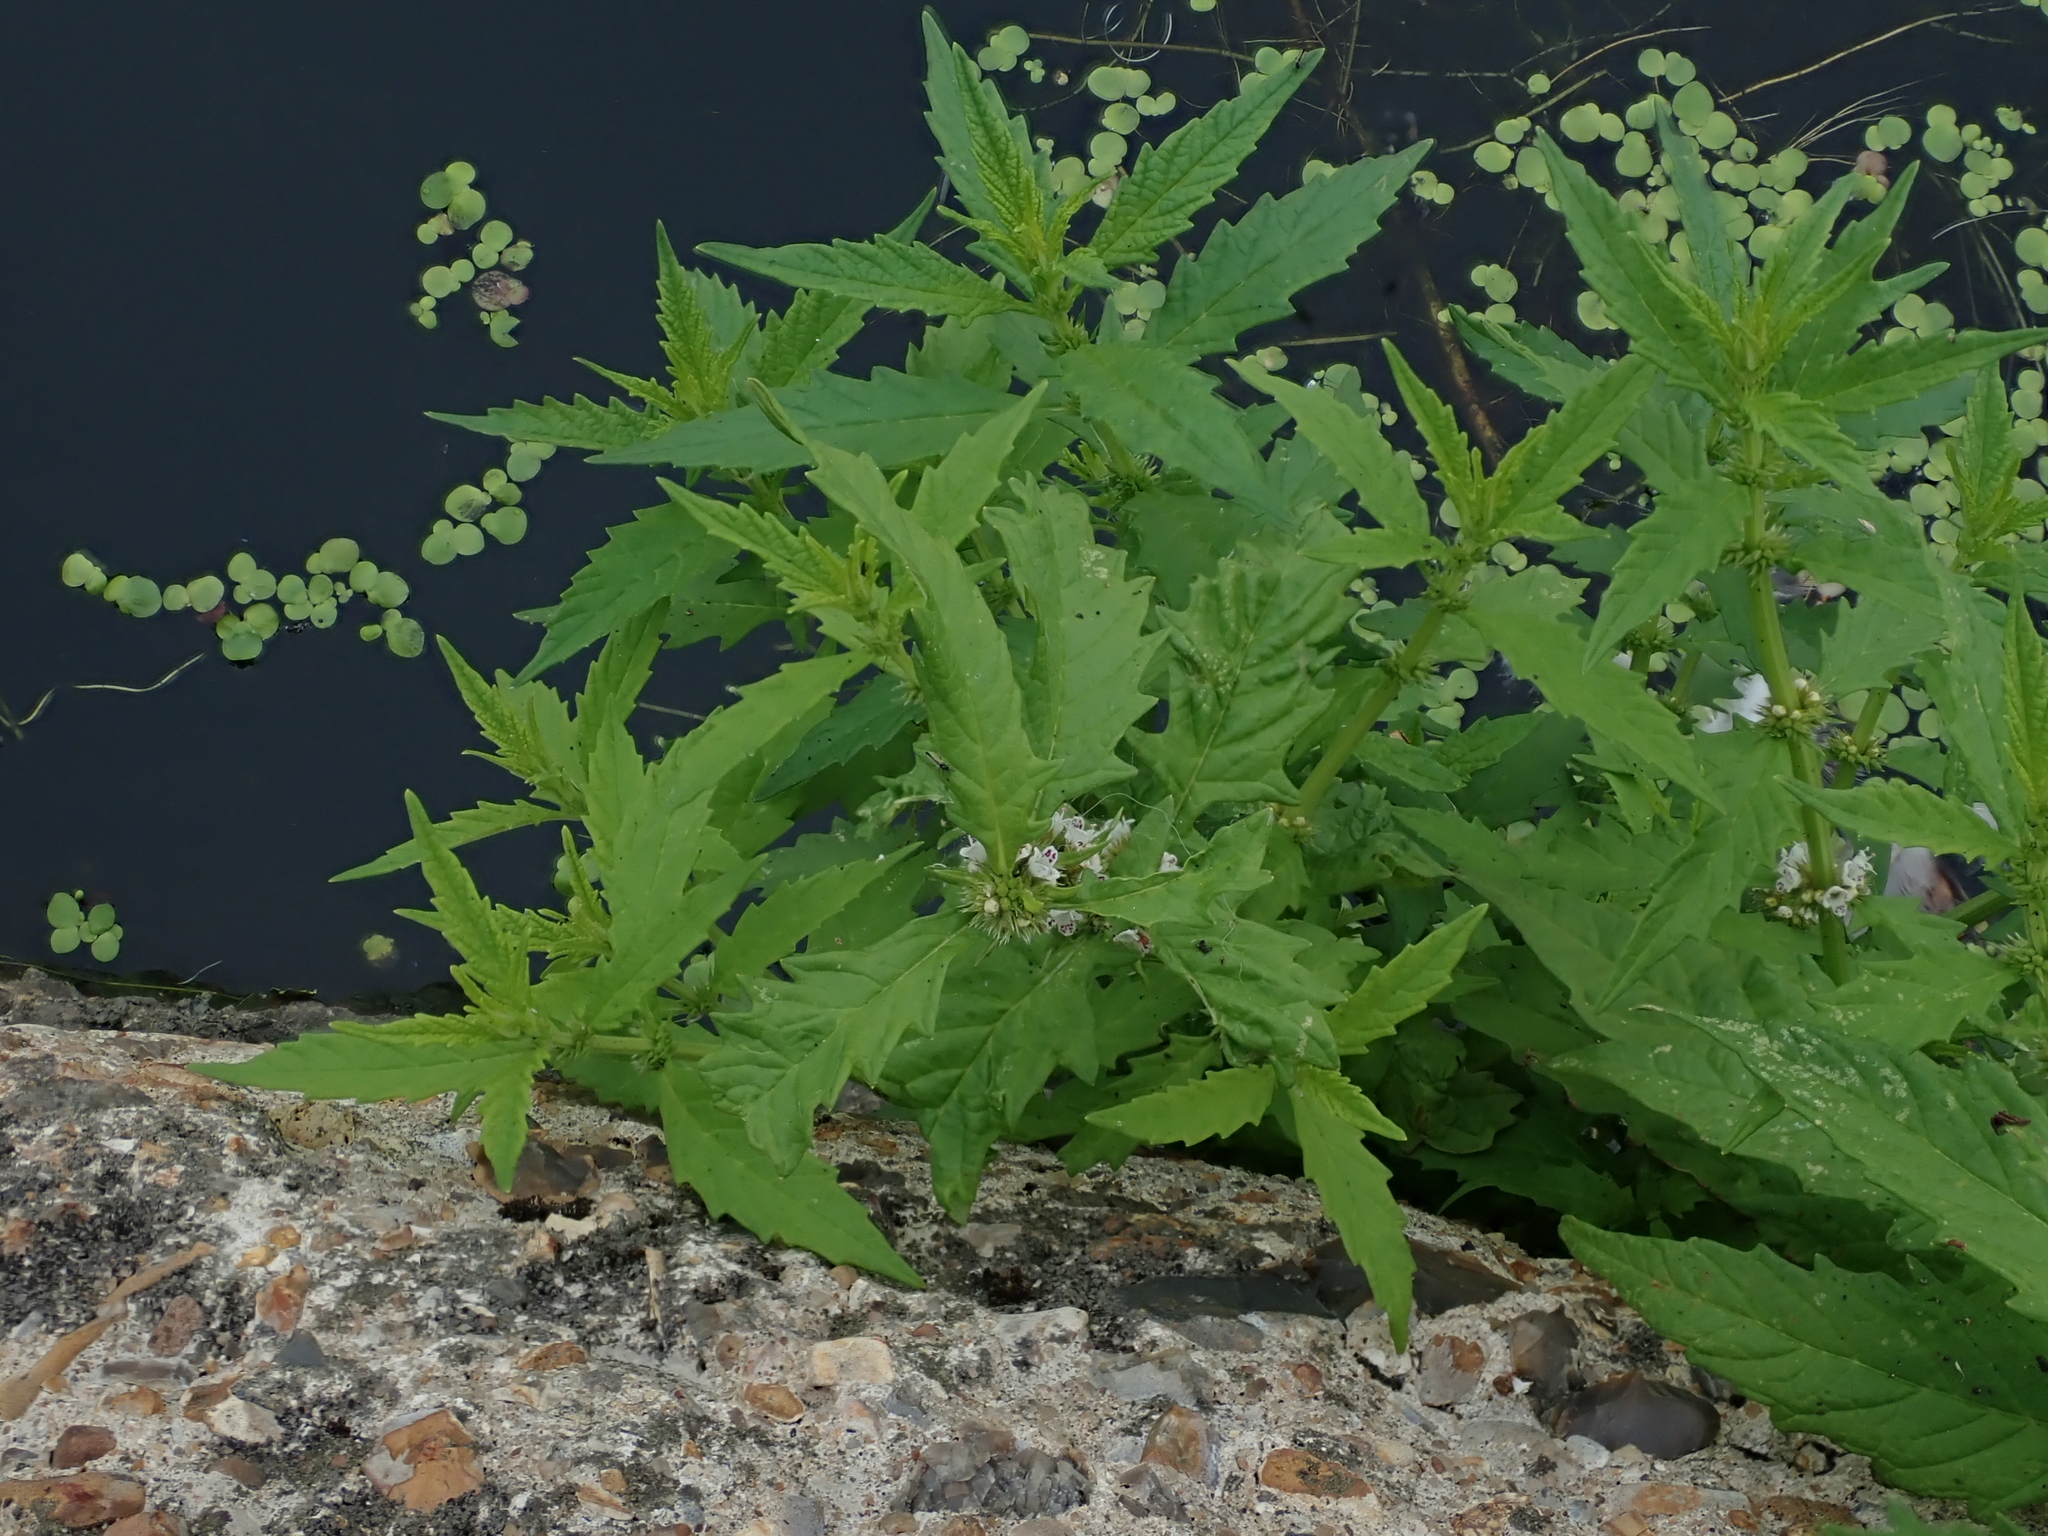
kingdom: Plantae
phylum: Tracheophyta
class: Magnoliopsida
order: Lamiales
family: Lamiaceae
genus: Lycopus
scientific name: Lycopus europaeus
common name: European bugleweed
